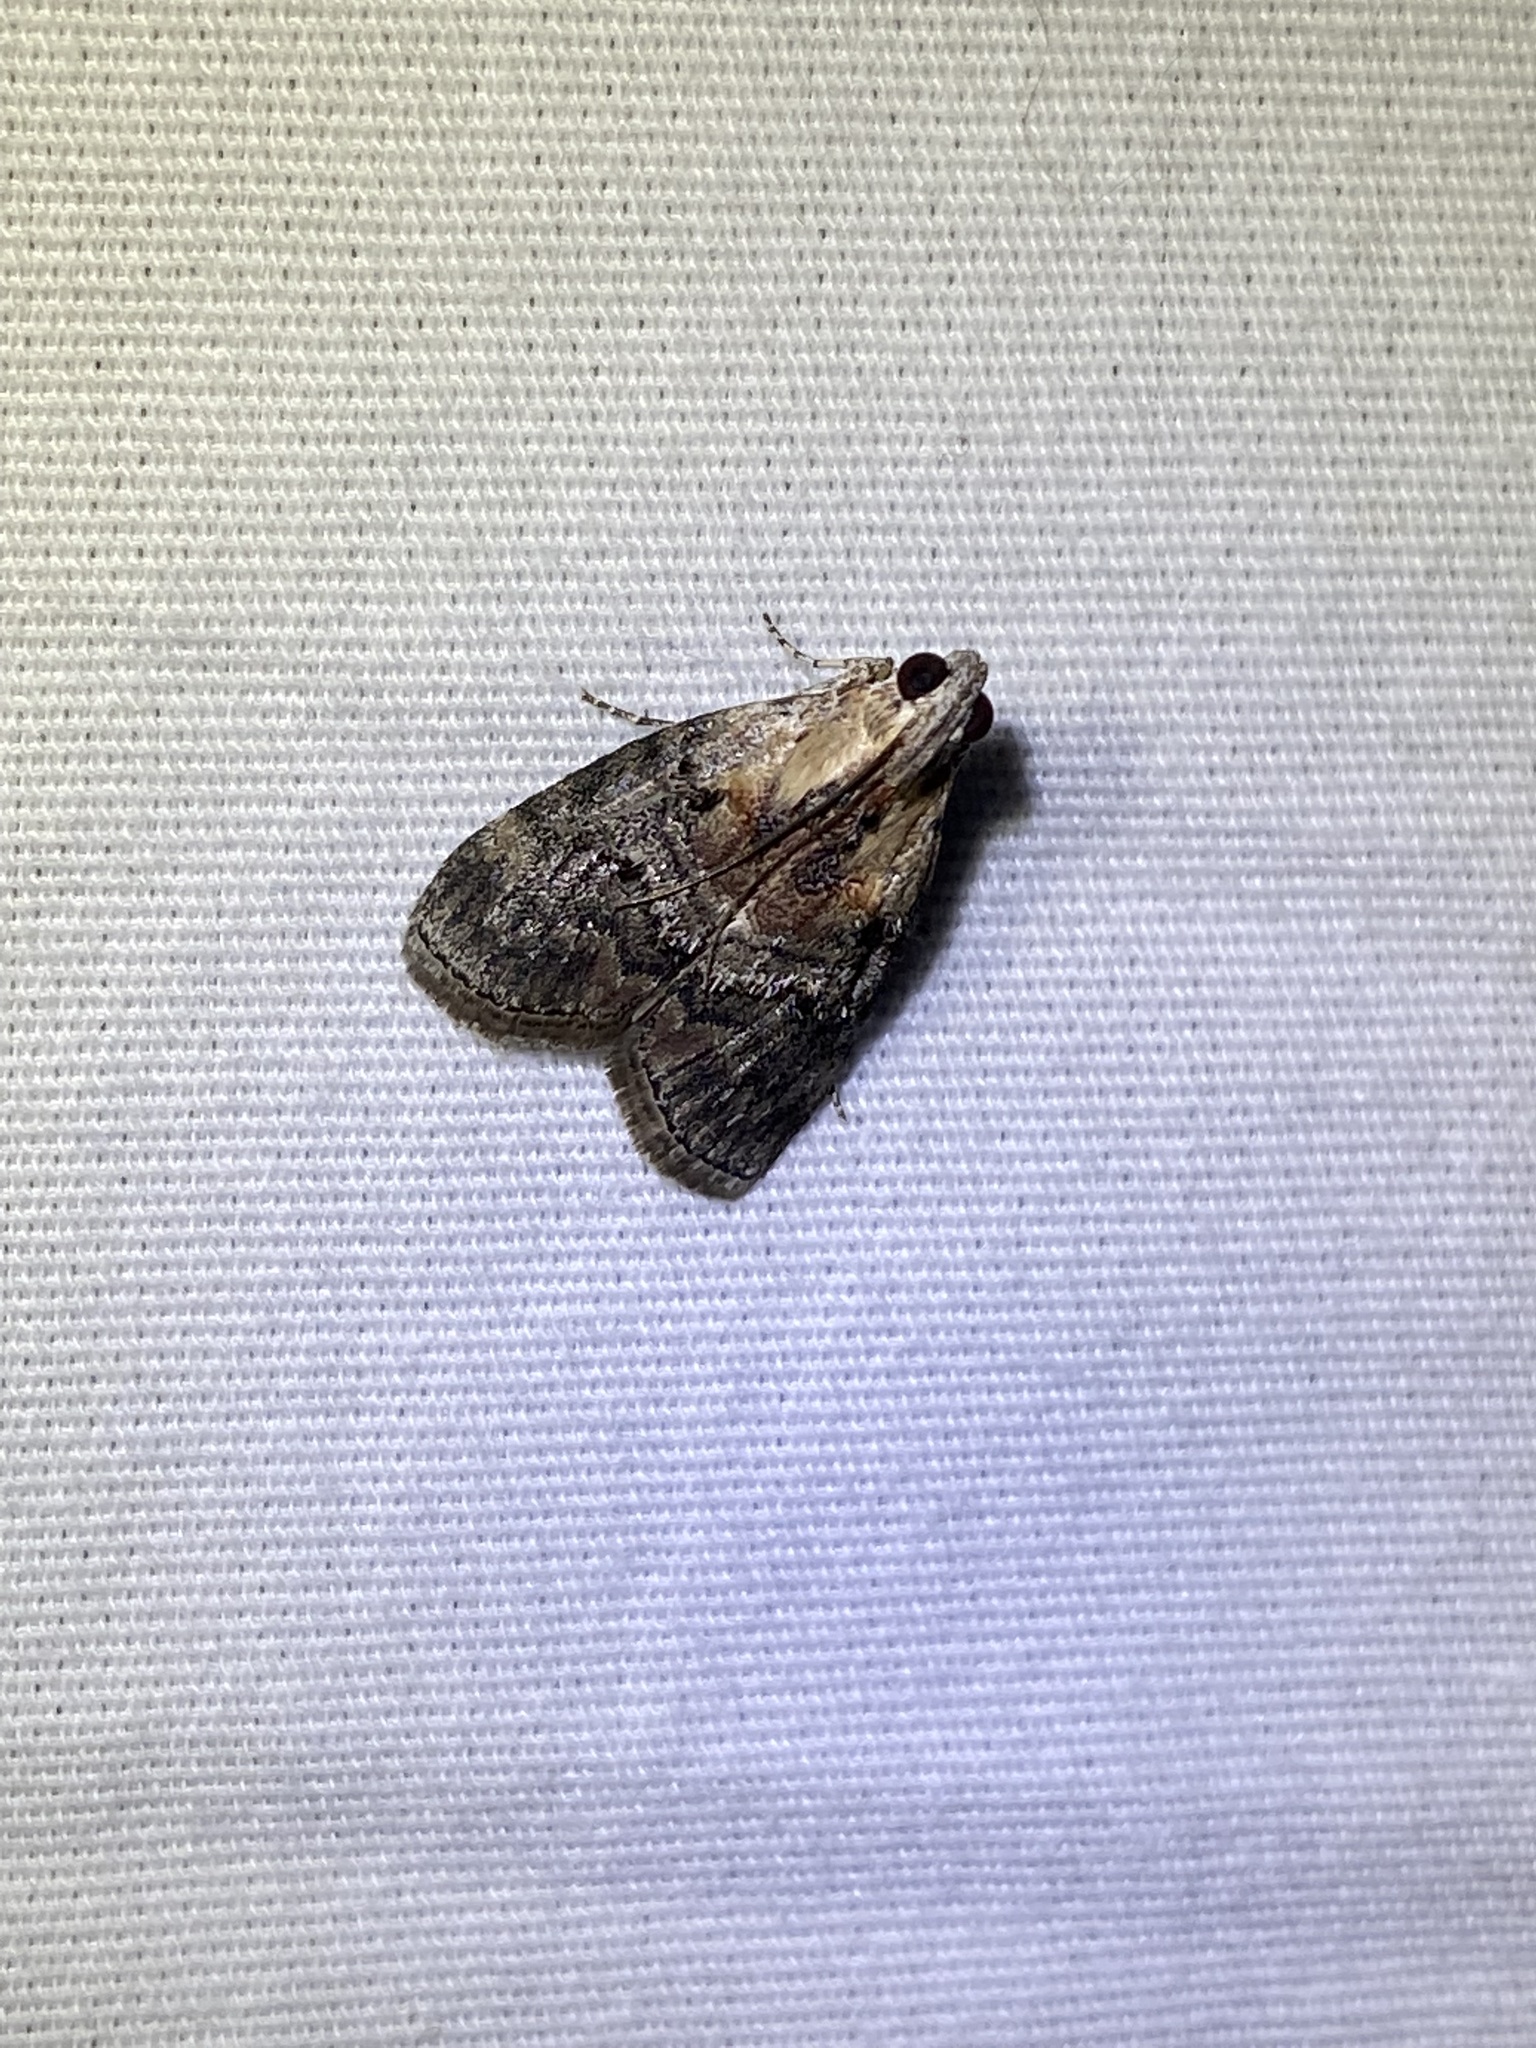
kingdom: Animalia
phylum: Arthropoda
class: Insecta
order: Lepidoptera
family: Pyralidae
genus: Pococera
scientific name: Pococera expandens
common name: Striped oak webworm moth
